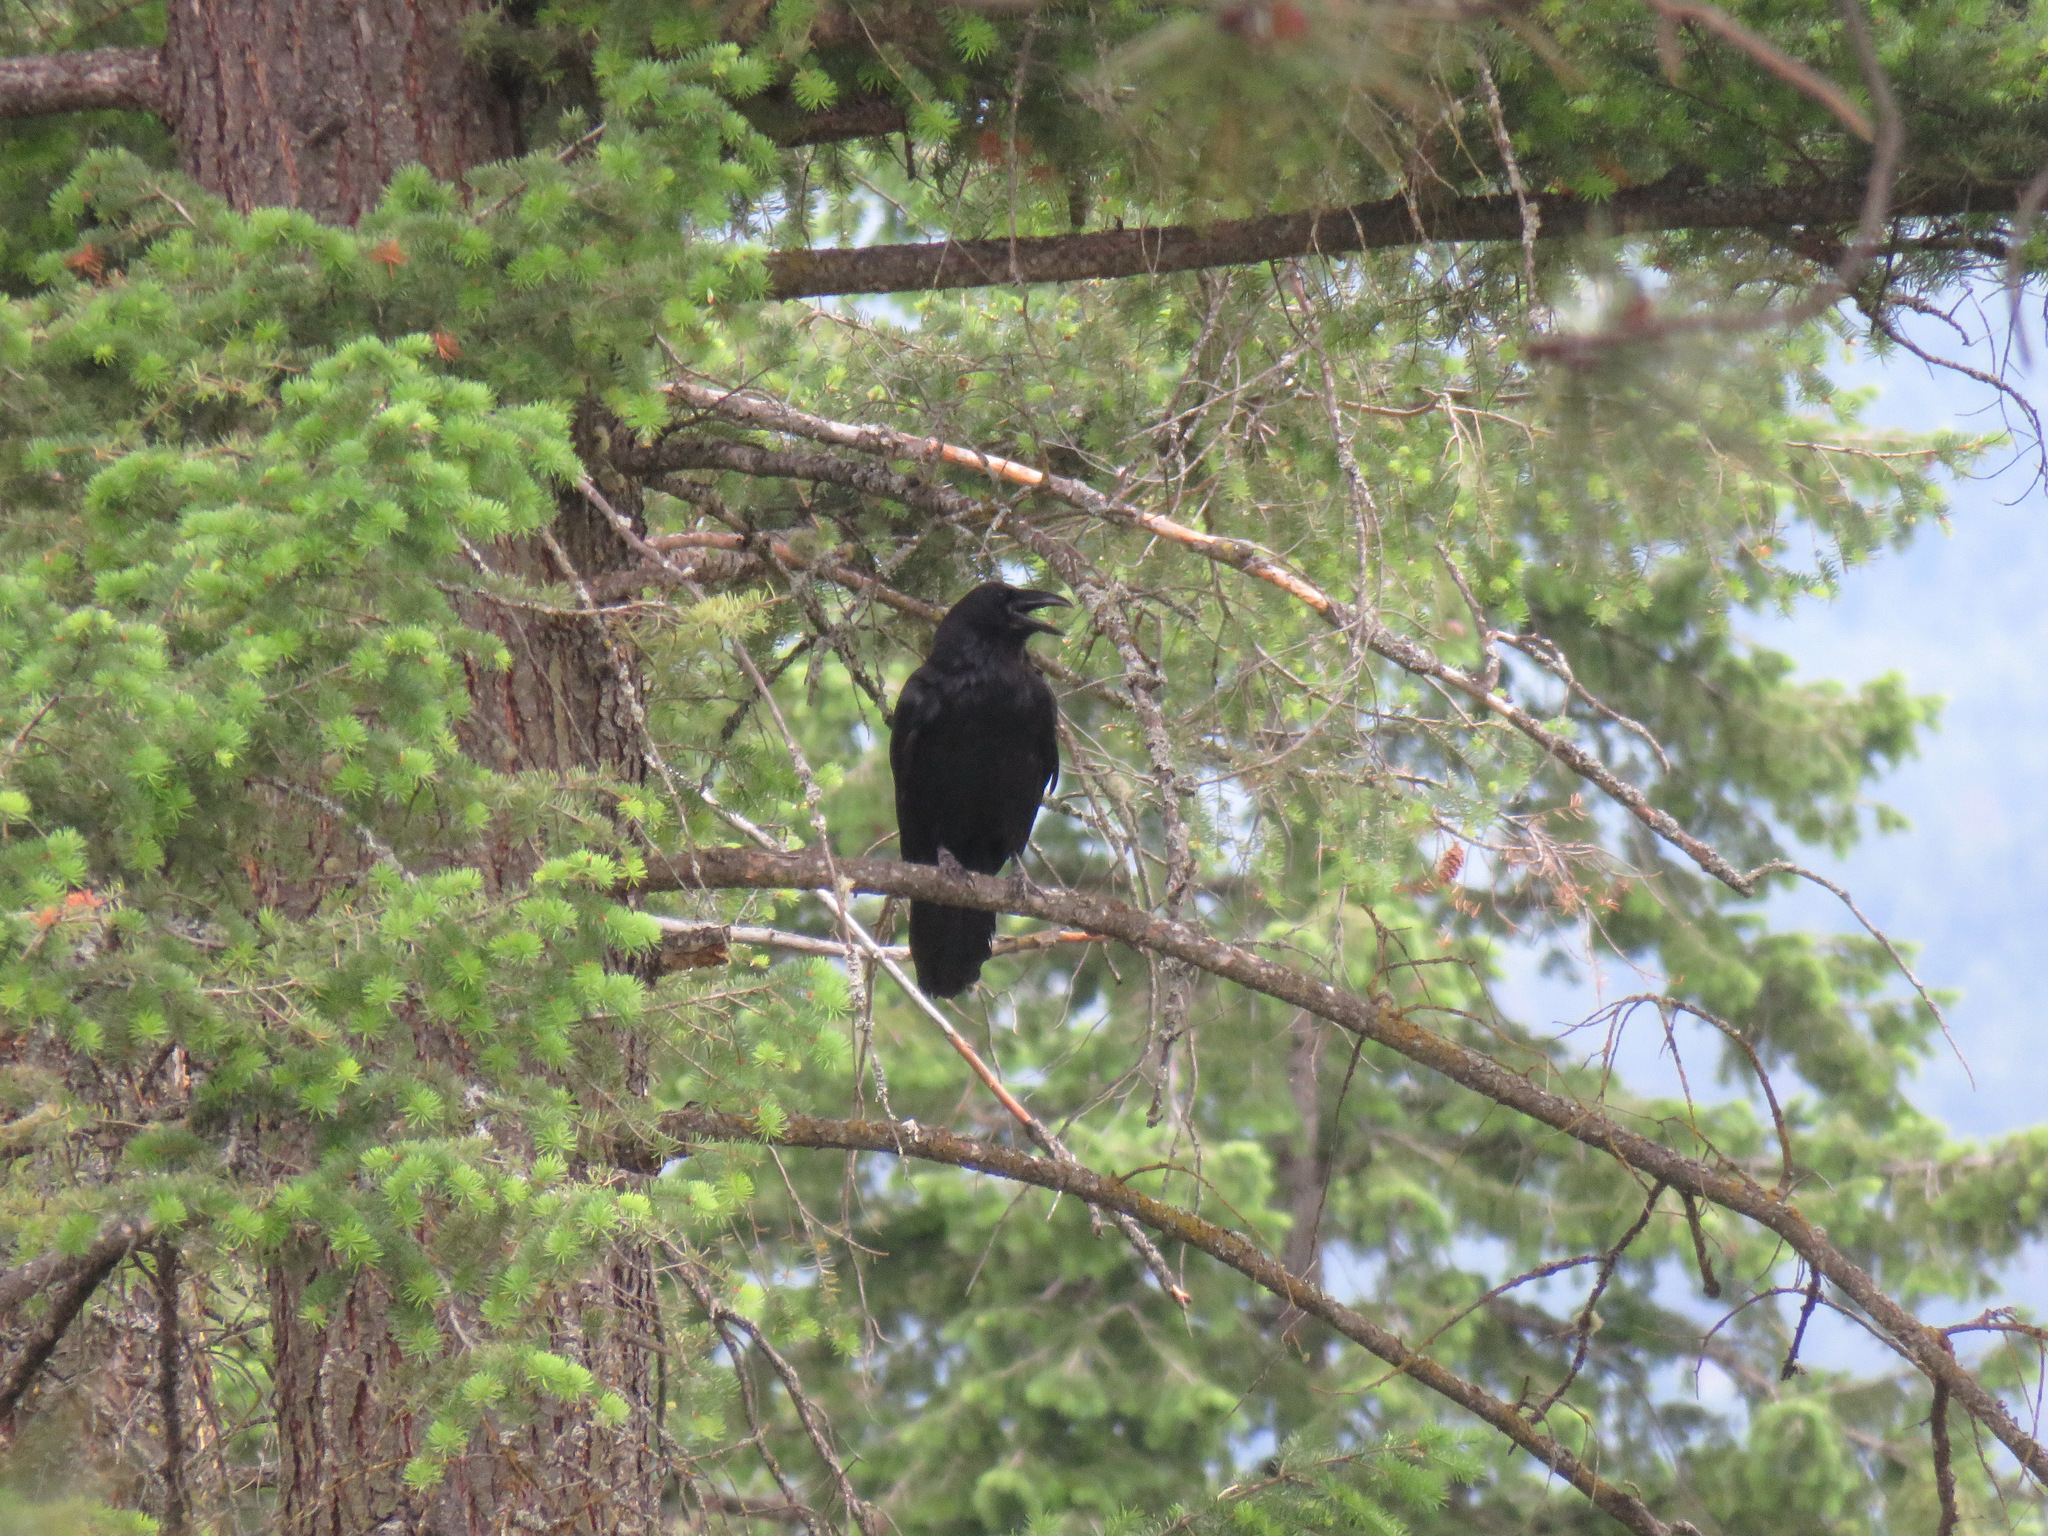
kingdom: Animalia
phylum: Chordata
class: Aves
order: Passeriformes
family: Corvidae
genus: Corvus
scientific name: Corvus brachyrhynchos
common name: American crow
